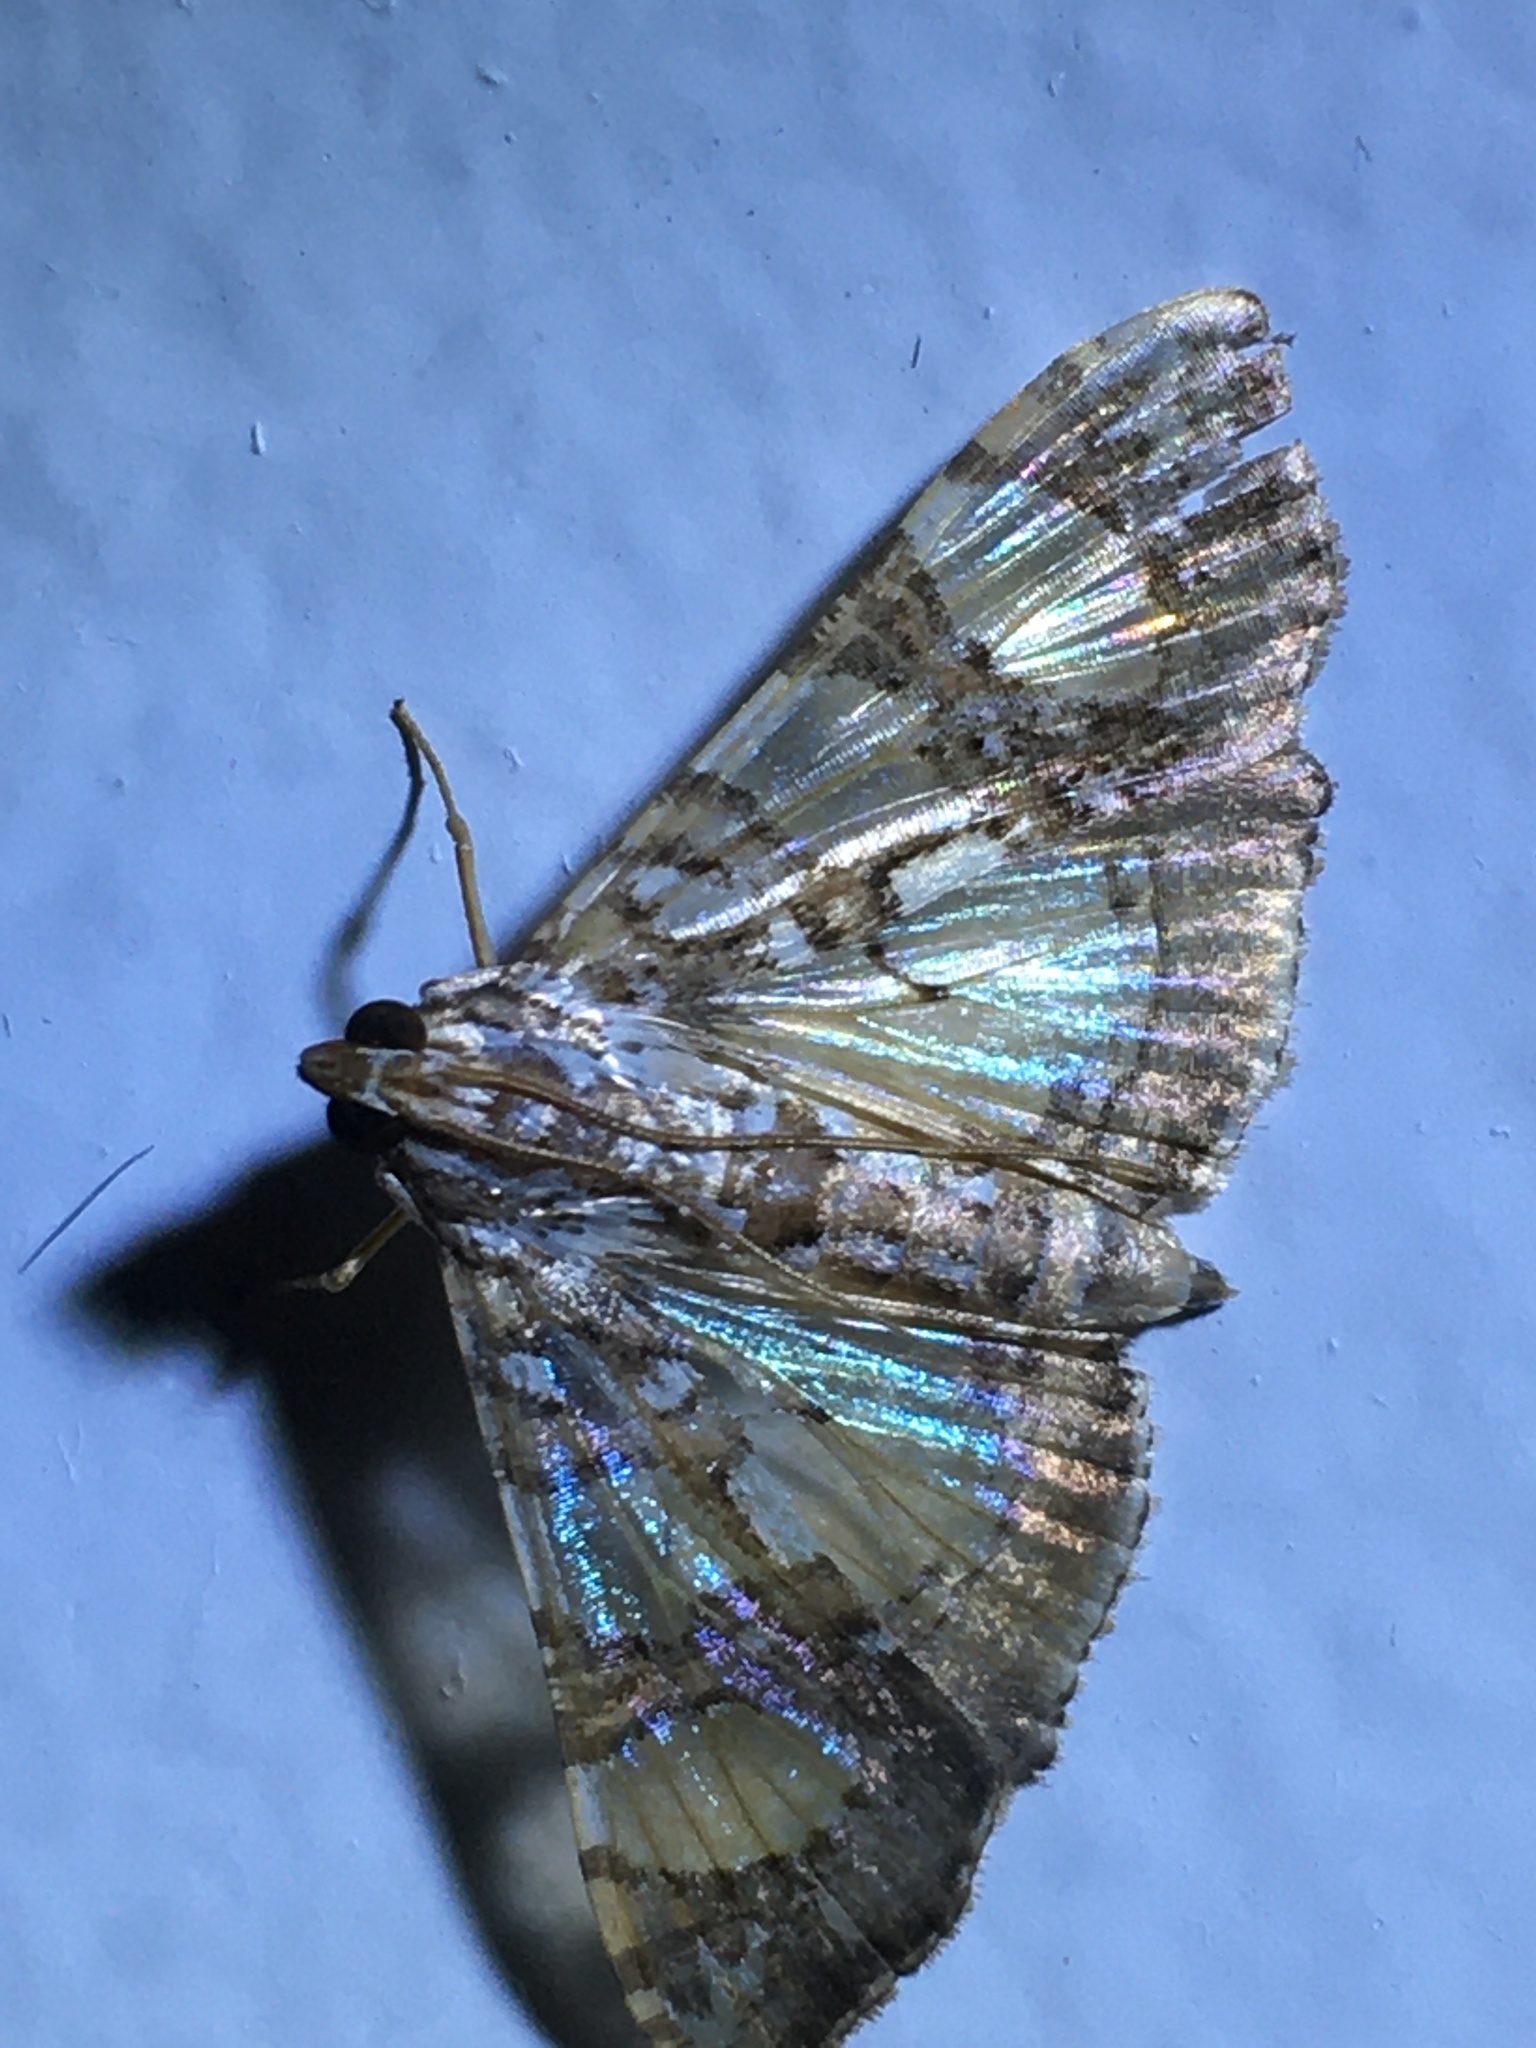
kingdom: Animalia
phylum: Arthropoda
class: Insecta
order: Lepidoptera
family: Crambidae
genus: Glyphodes
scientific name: Glyphodes sibillalis
